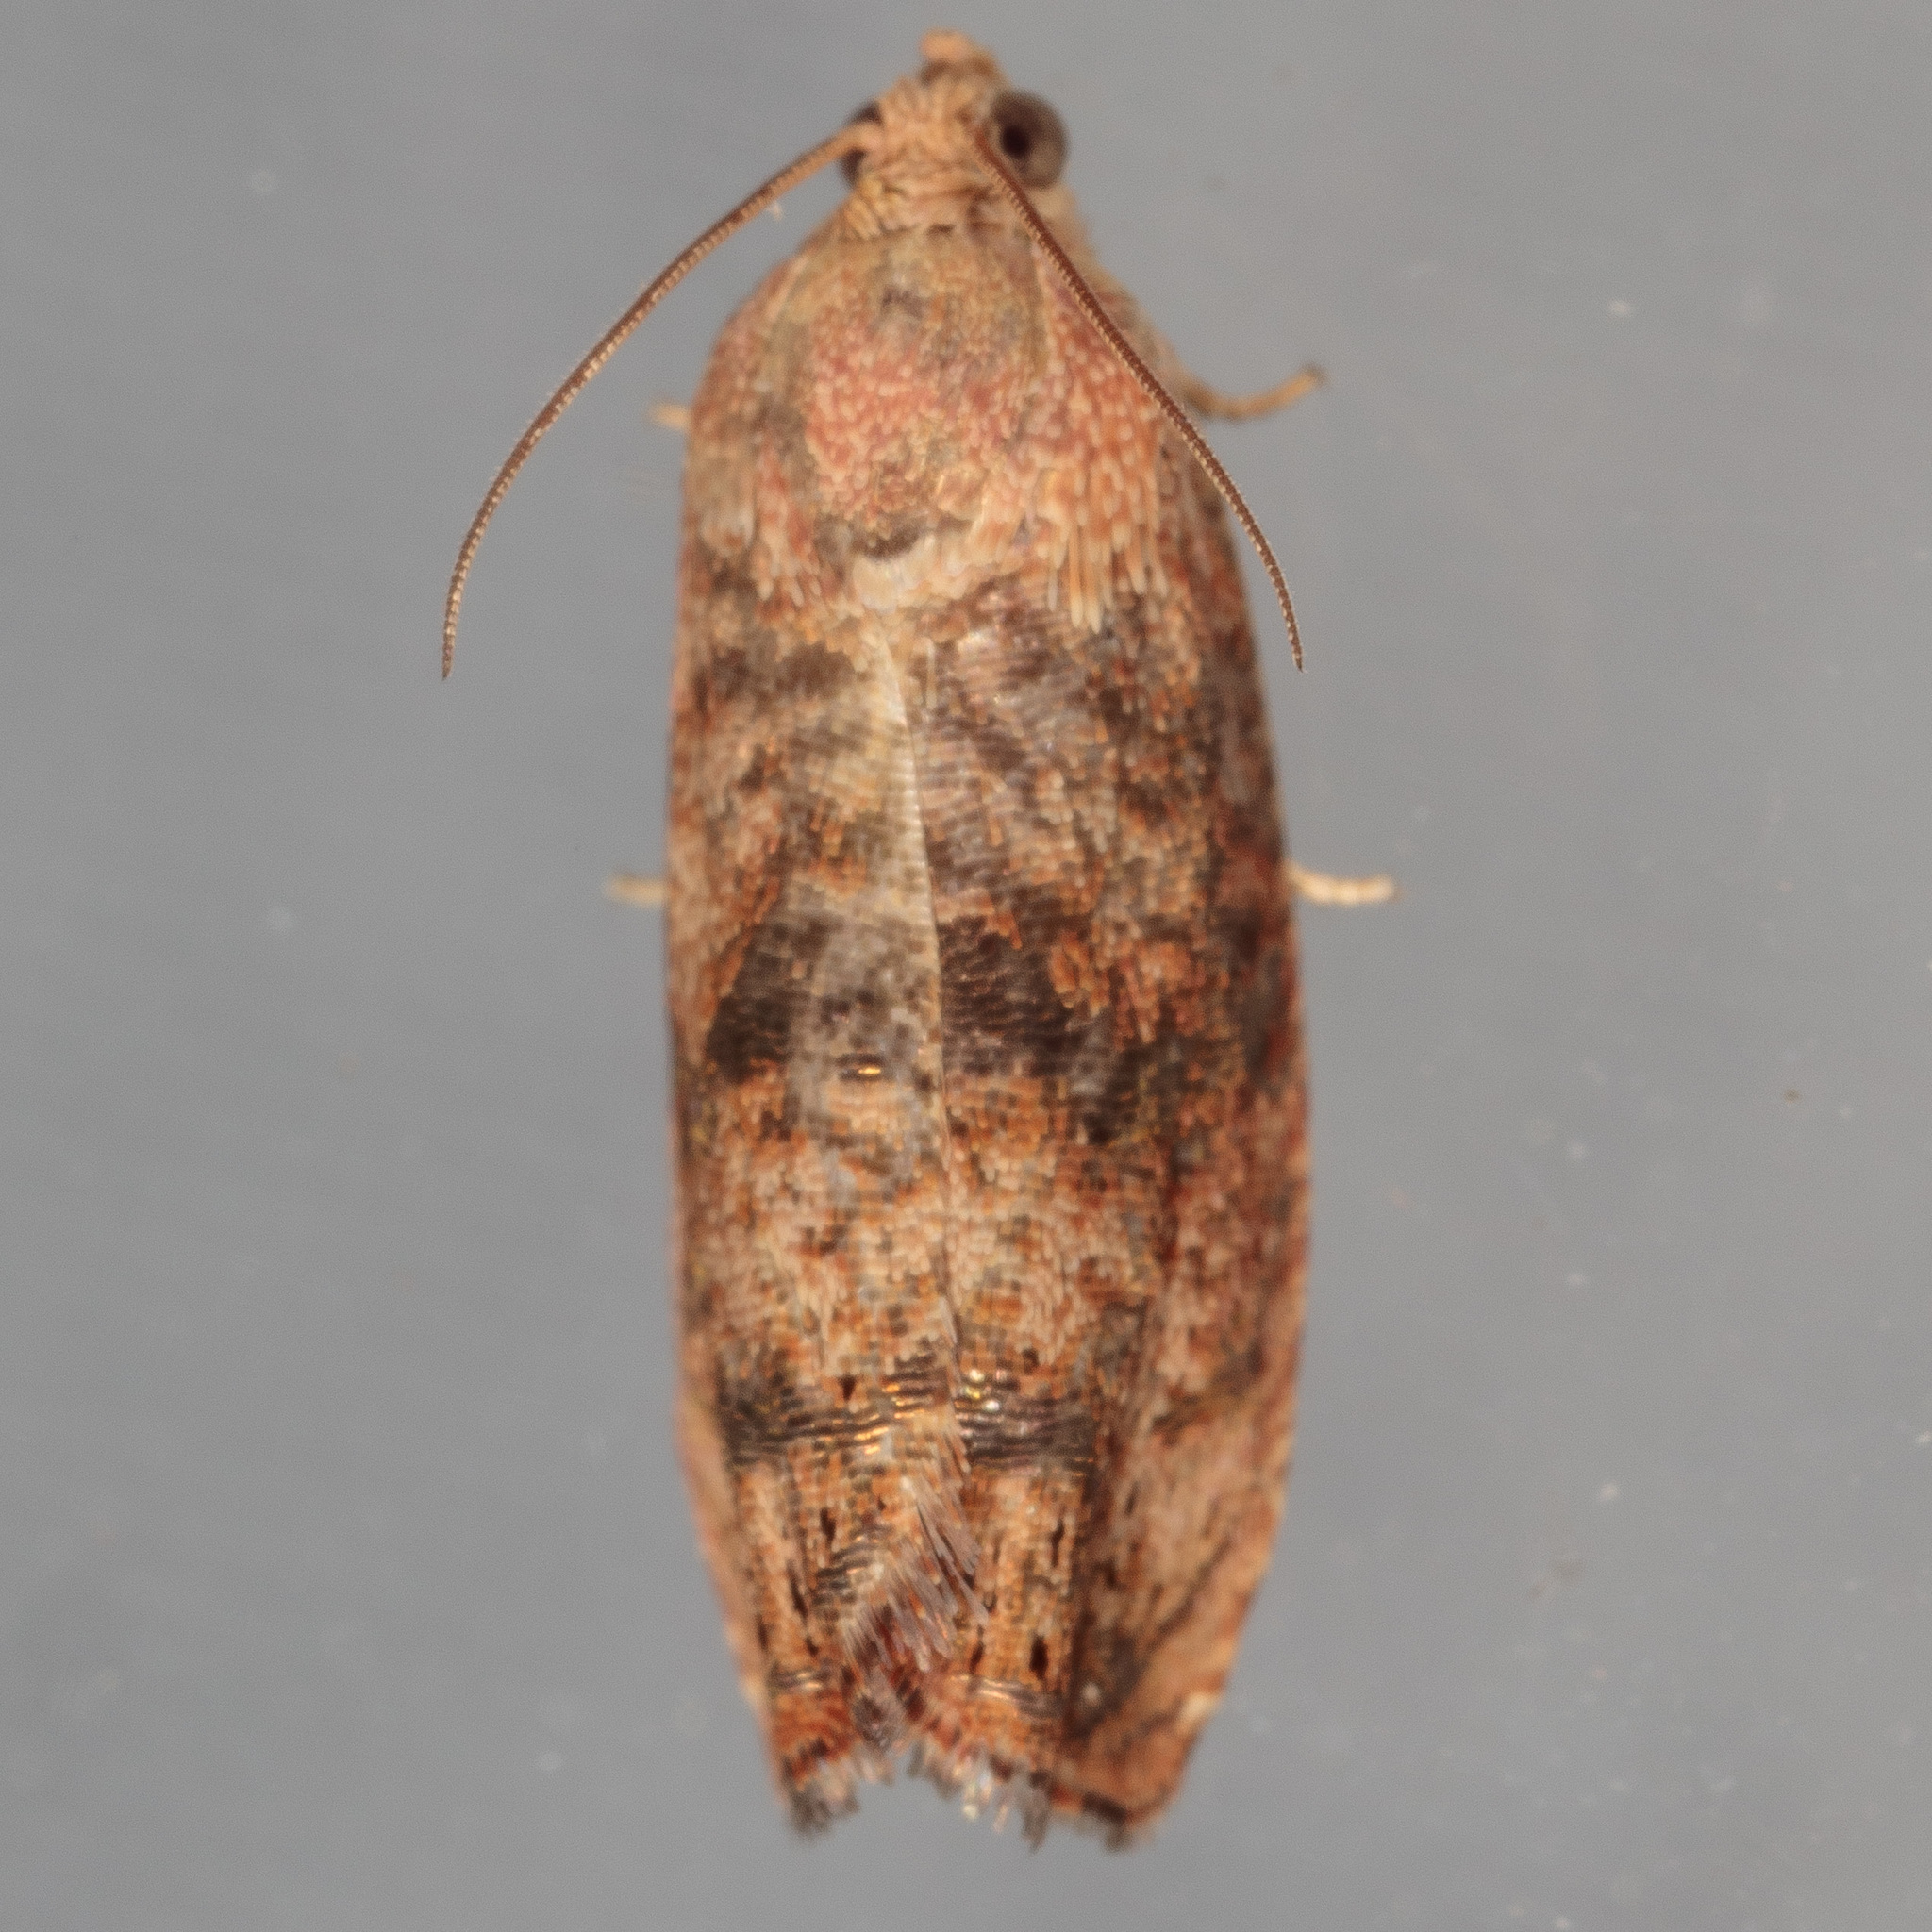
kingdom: Animalia
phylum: Arthropoda
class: Insecta
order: Lepidoptera
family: Tortricidae
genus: Cydia
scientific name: Cydia latiferreana
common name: Filbertworm moth
